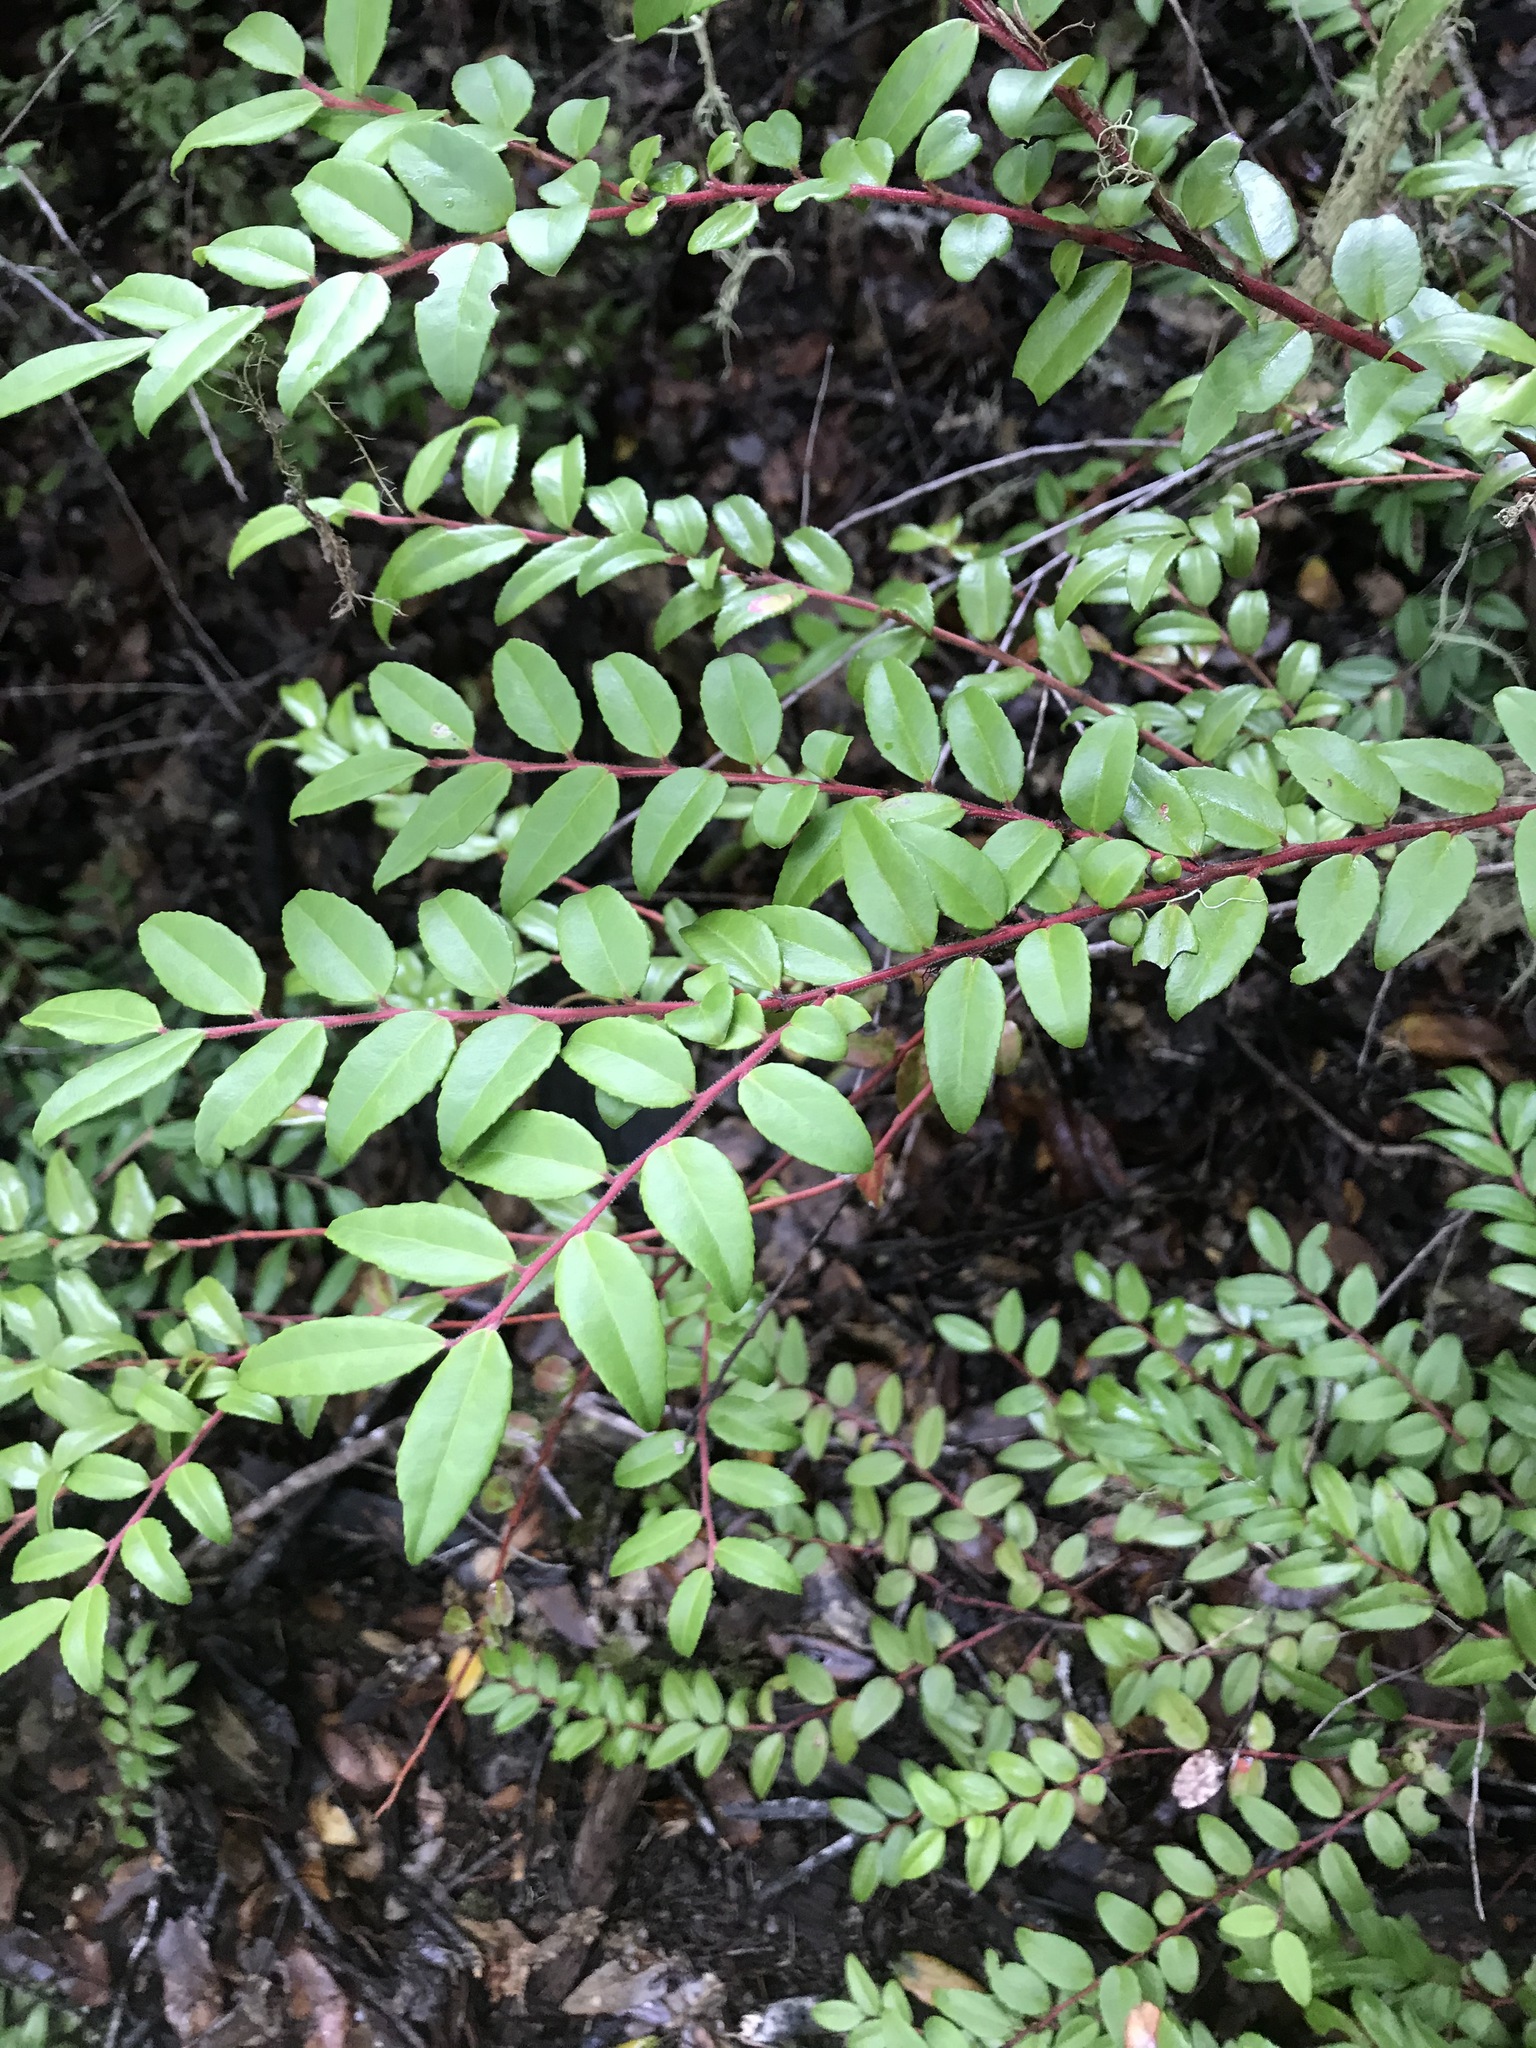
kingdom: Plantae
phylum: Tracheophyta
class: Magnoliopsida
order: Ericales
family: Ericaceae
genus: Vaccinium
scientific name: Vaccinium ovatum
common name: California-huckleberry
